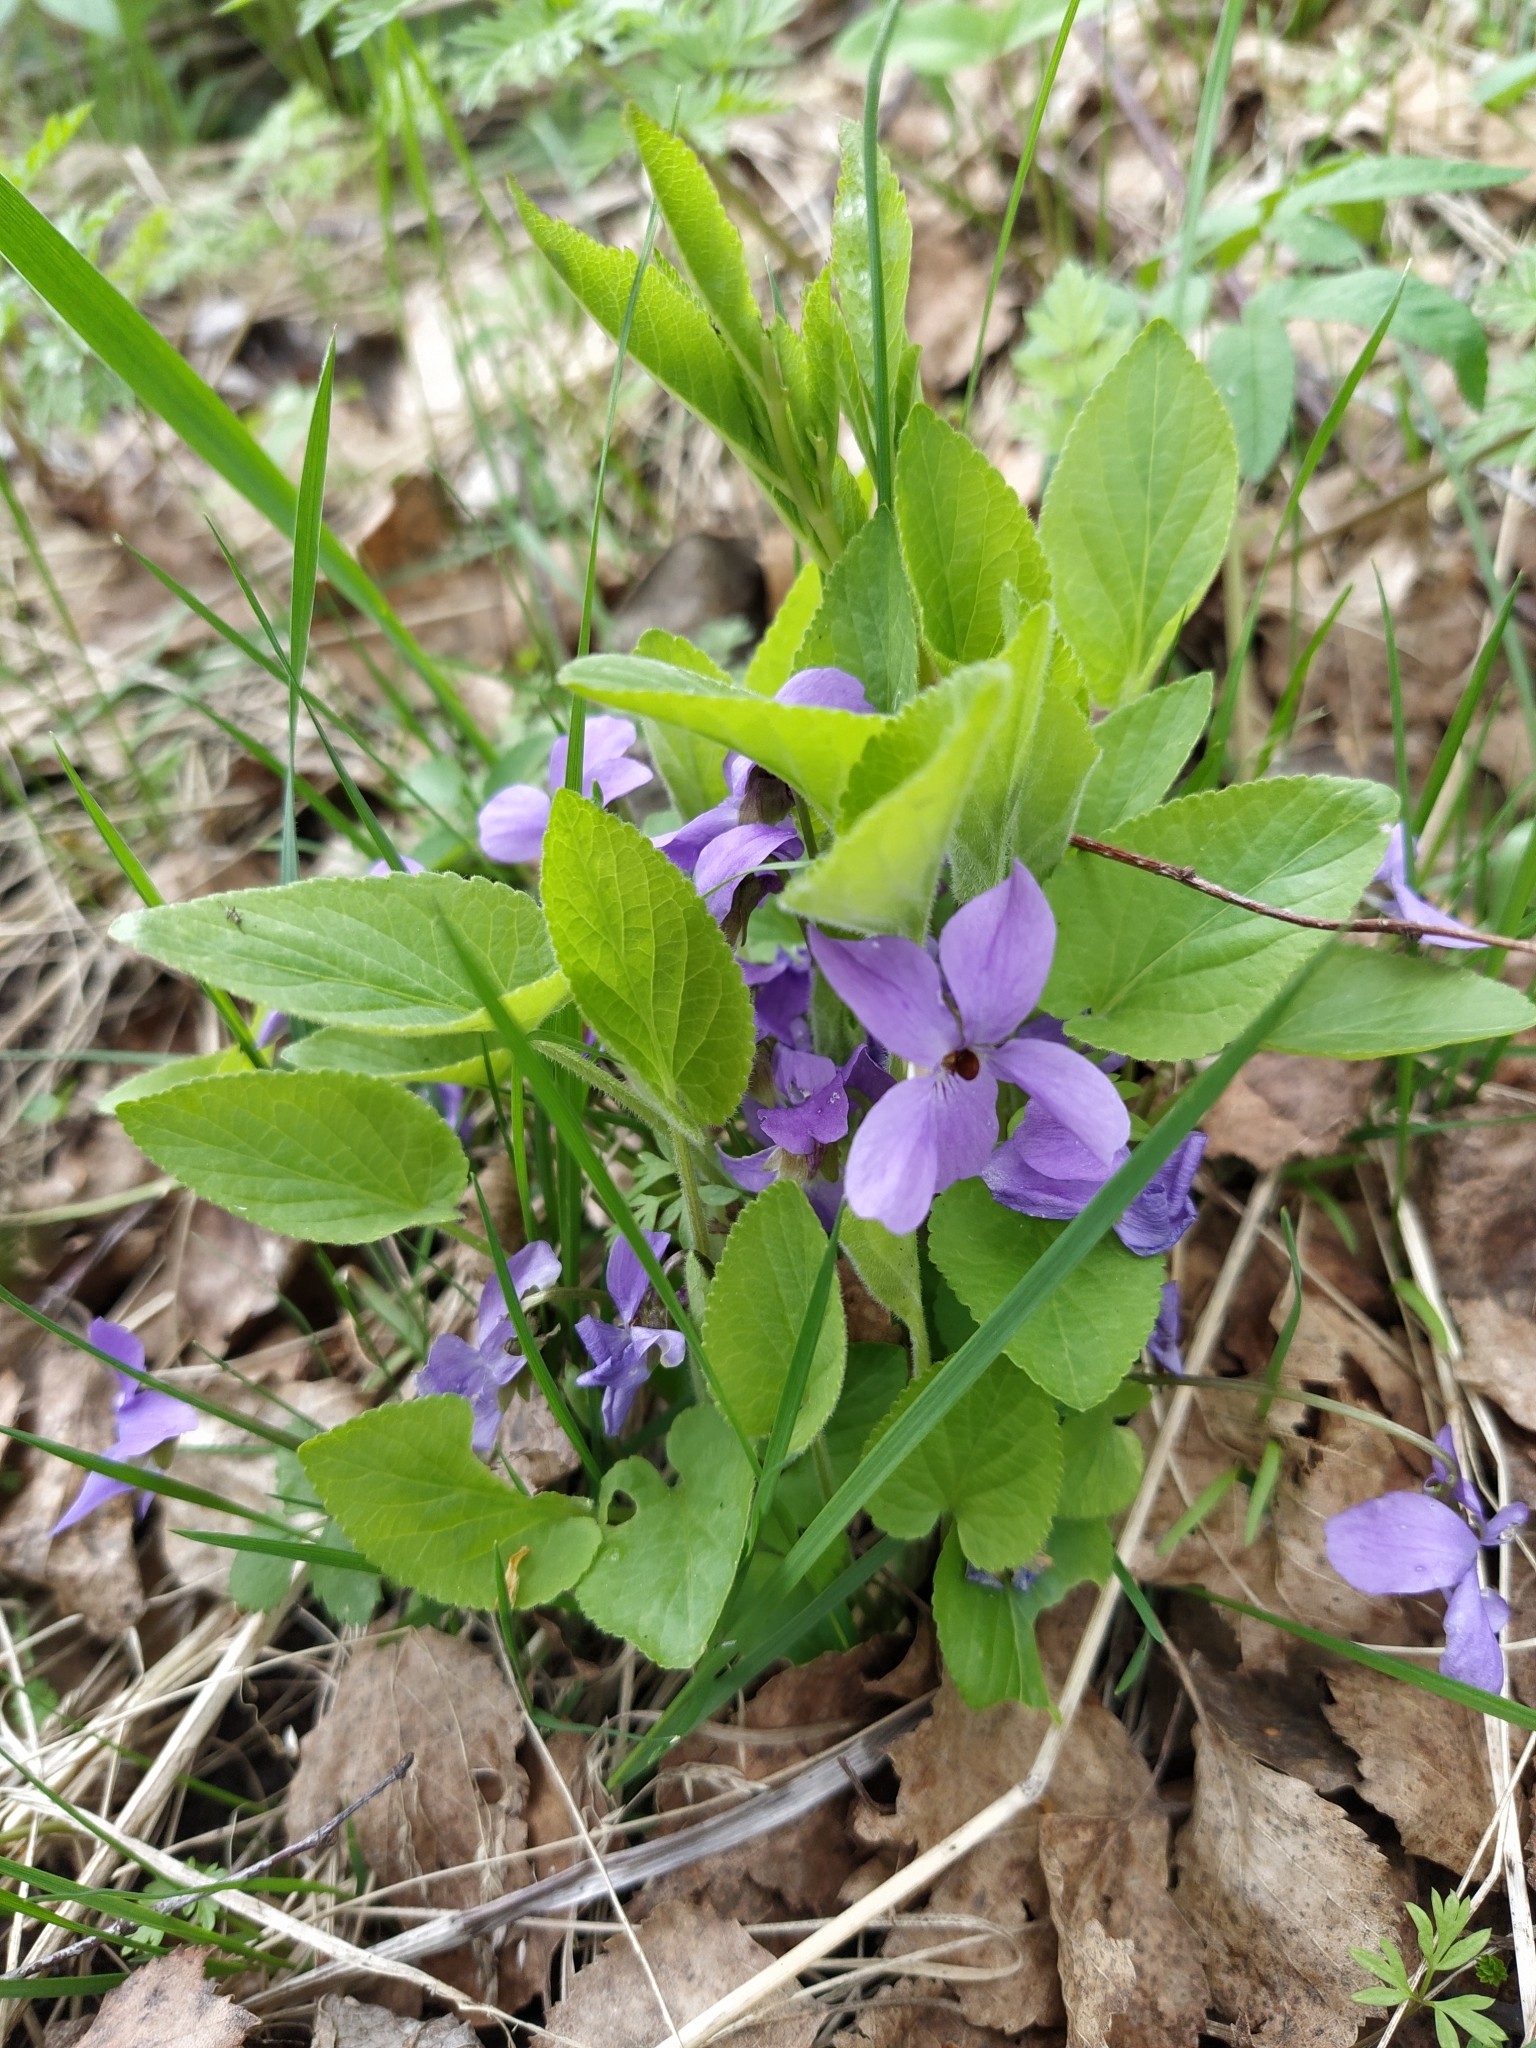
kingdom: Plantae
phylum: Tracheophyta
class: Magnoliopsida
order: Malpighiales
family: Violaceae
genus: Viola
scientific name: Viola hirta
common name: Hairy violet
